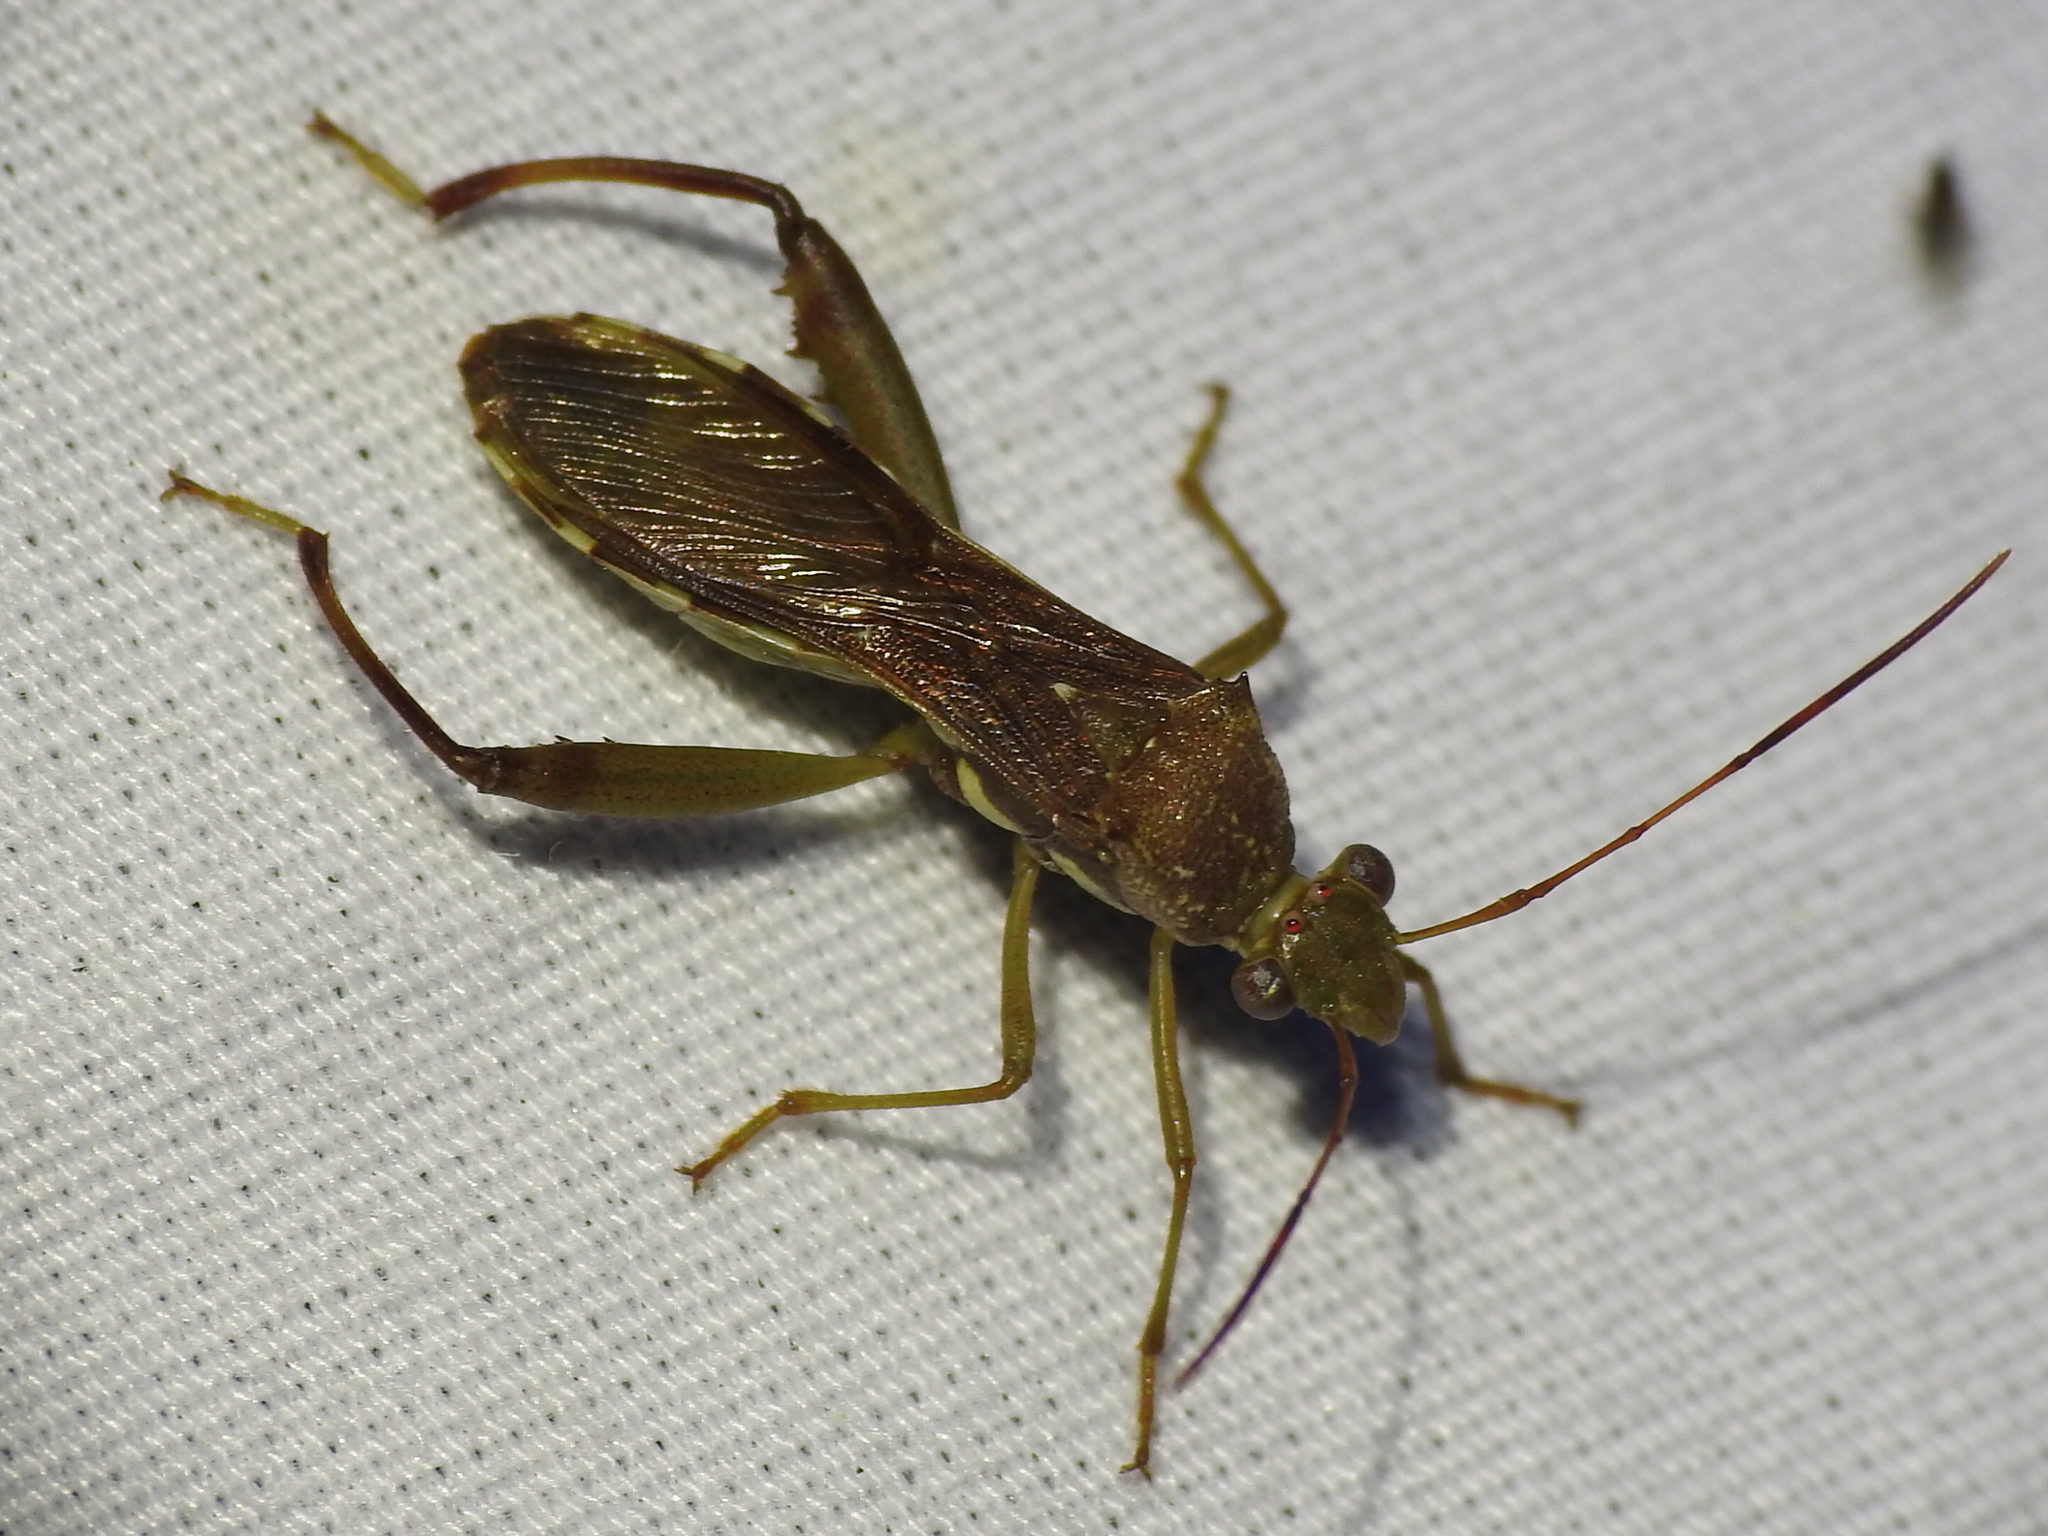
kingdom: Animalia
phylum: Arthropoda
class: Insecta
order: Hemiptera
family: Alydidae
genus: Hyalymenus
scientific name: Hyalymenus tarsatus
